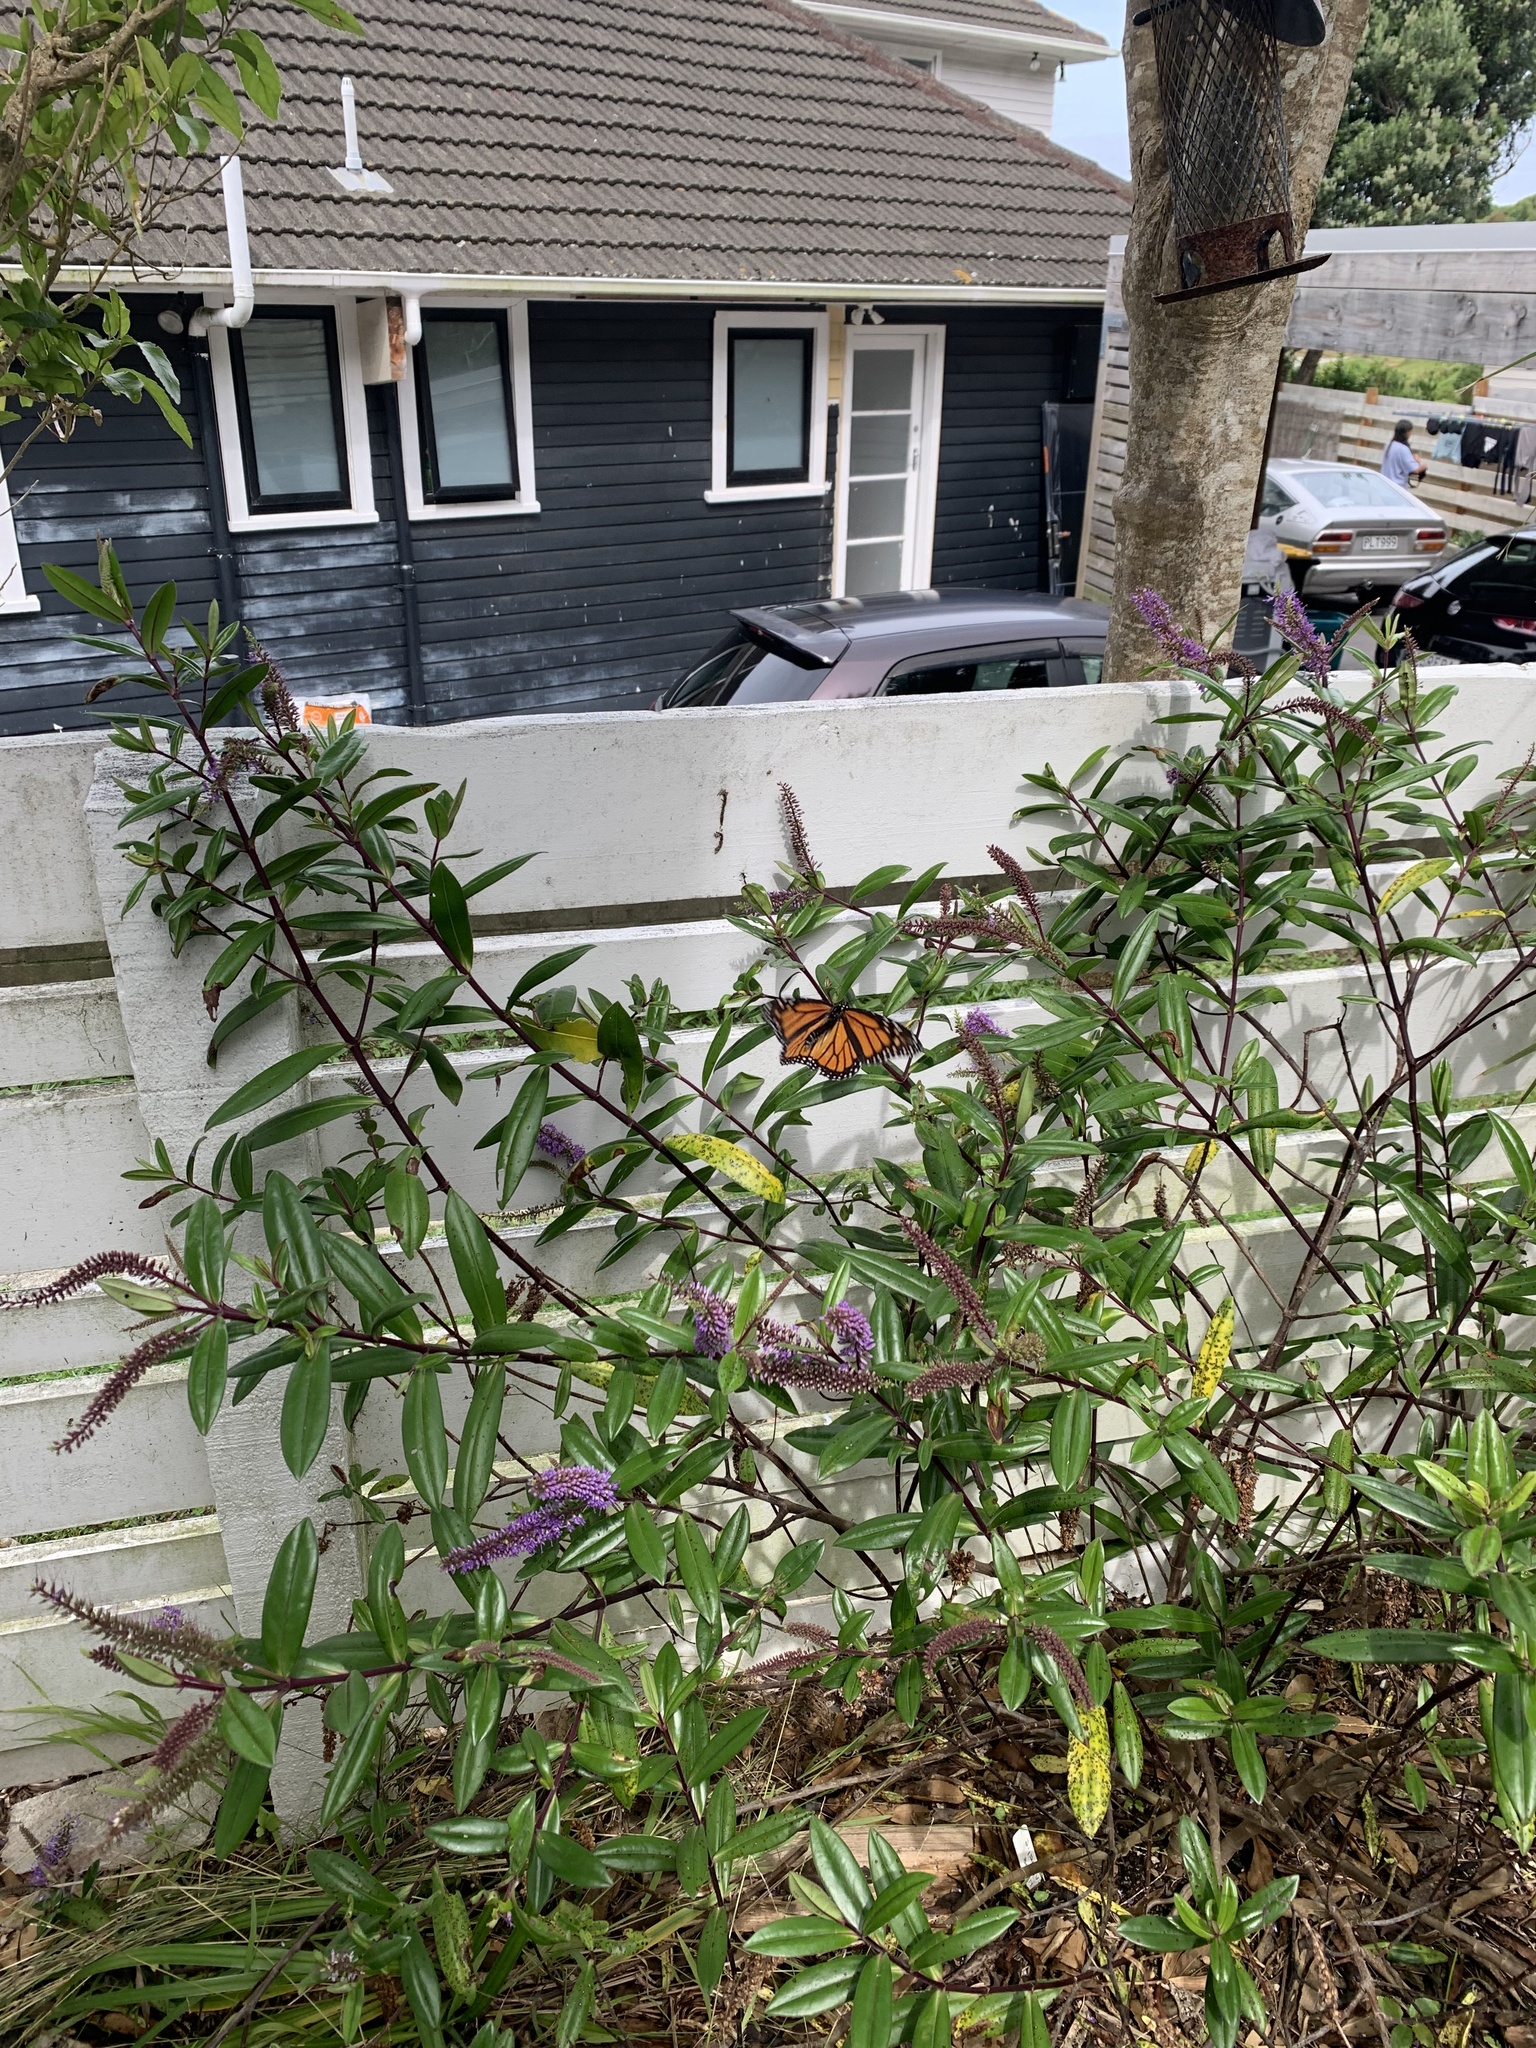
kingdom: Animalia
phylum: Arthropoda
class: Insecta
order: Lepidoptera
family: Nymphalidae
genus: Danaus
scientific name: Danaus plexippus
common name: Monarch
